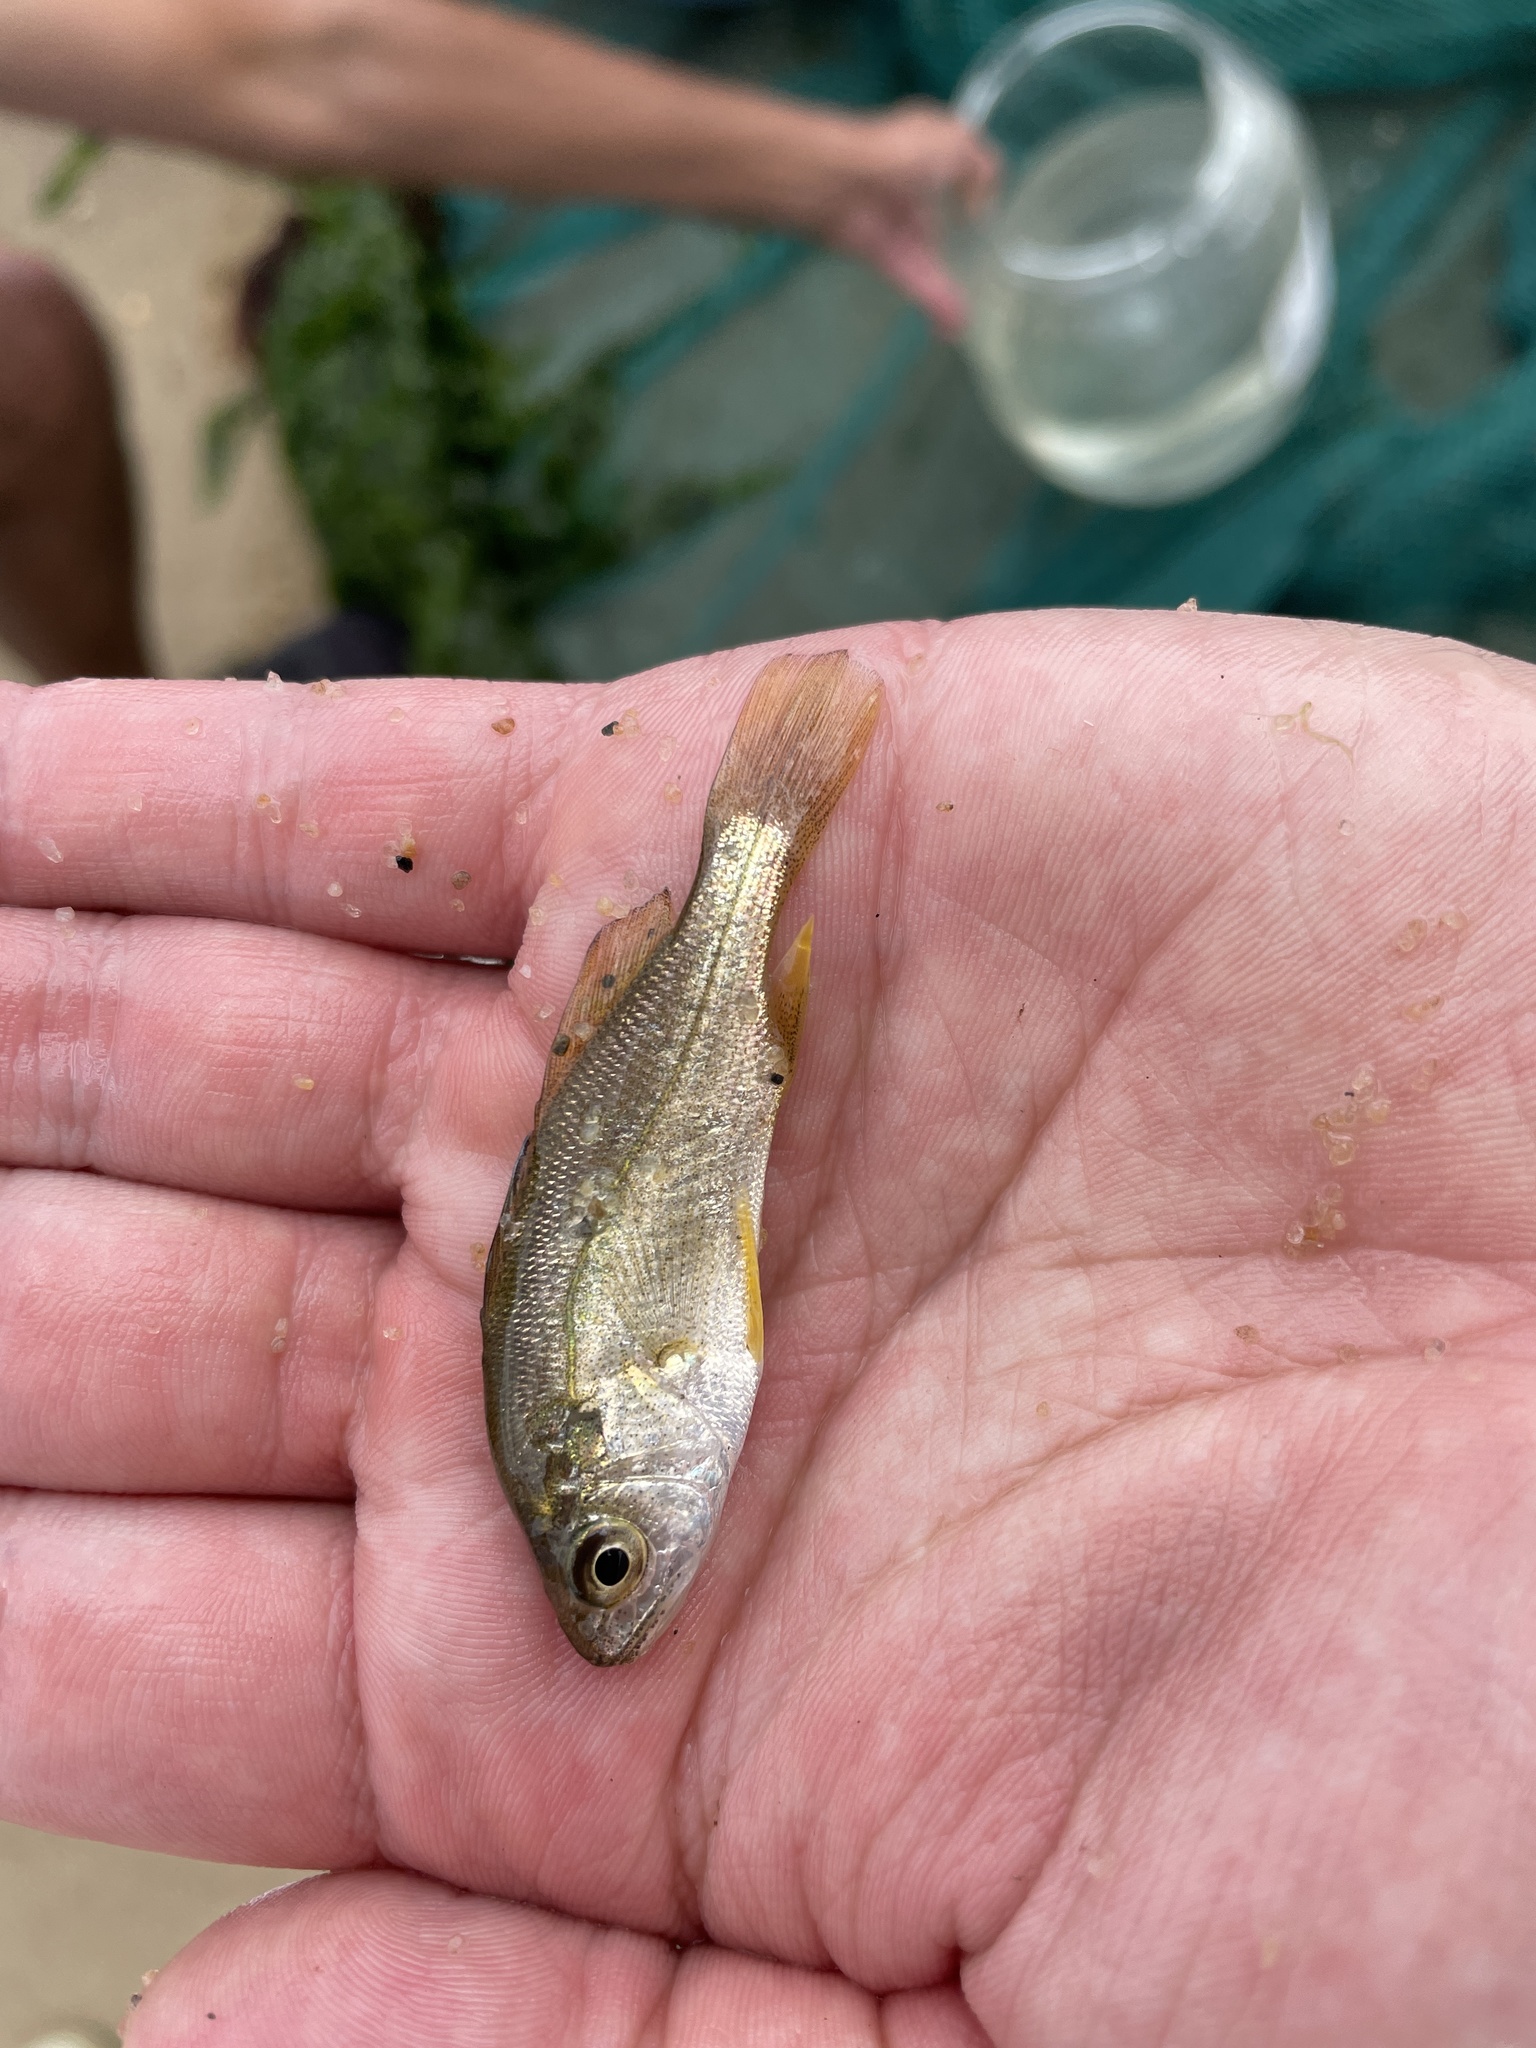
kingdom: Animalia
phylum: Chordata
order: Perciformes
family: Sciaenidae
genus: Bairdiella
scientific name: Bairdiella chrysoura
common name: Silver perch
